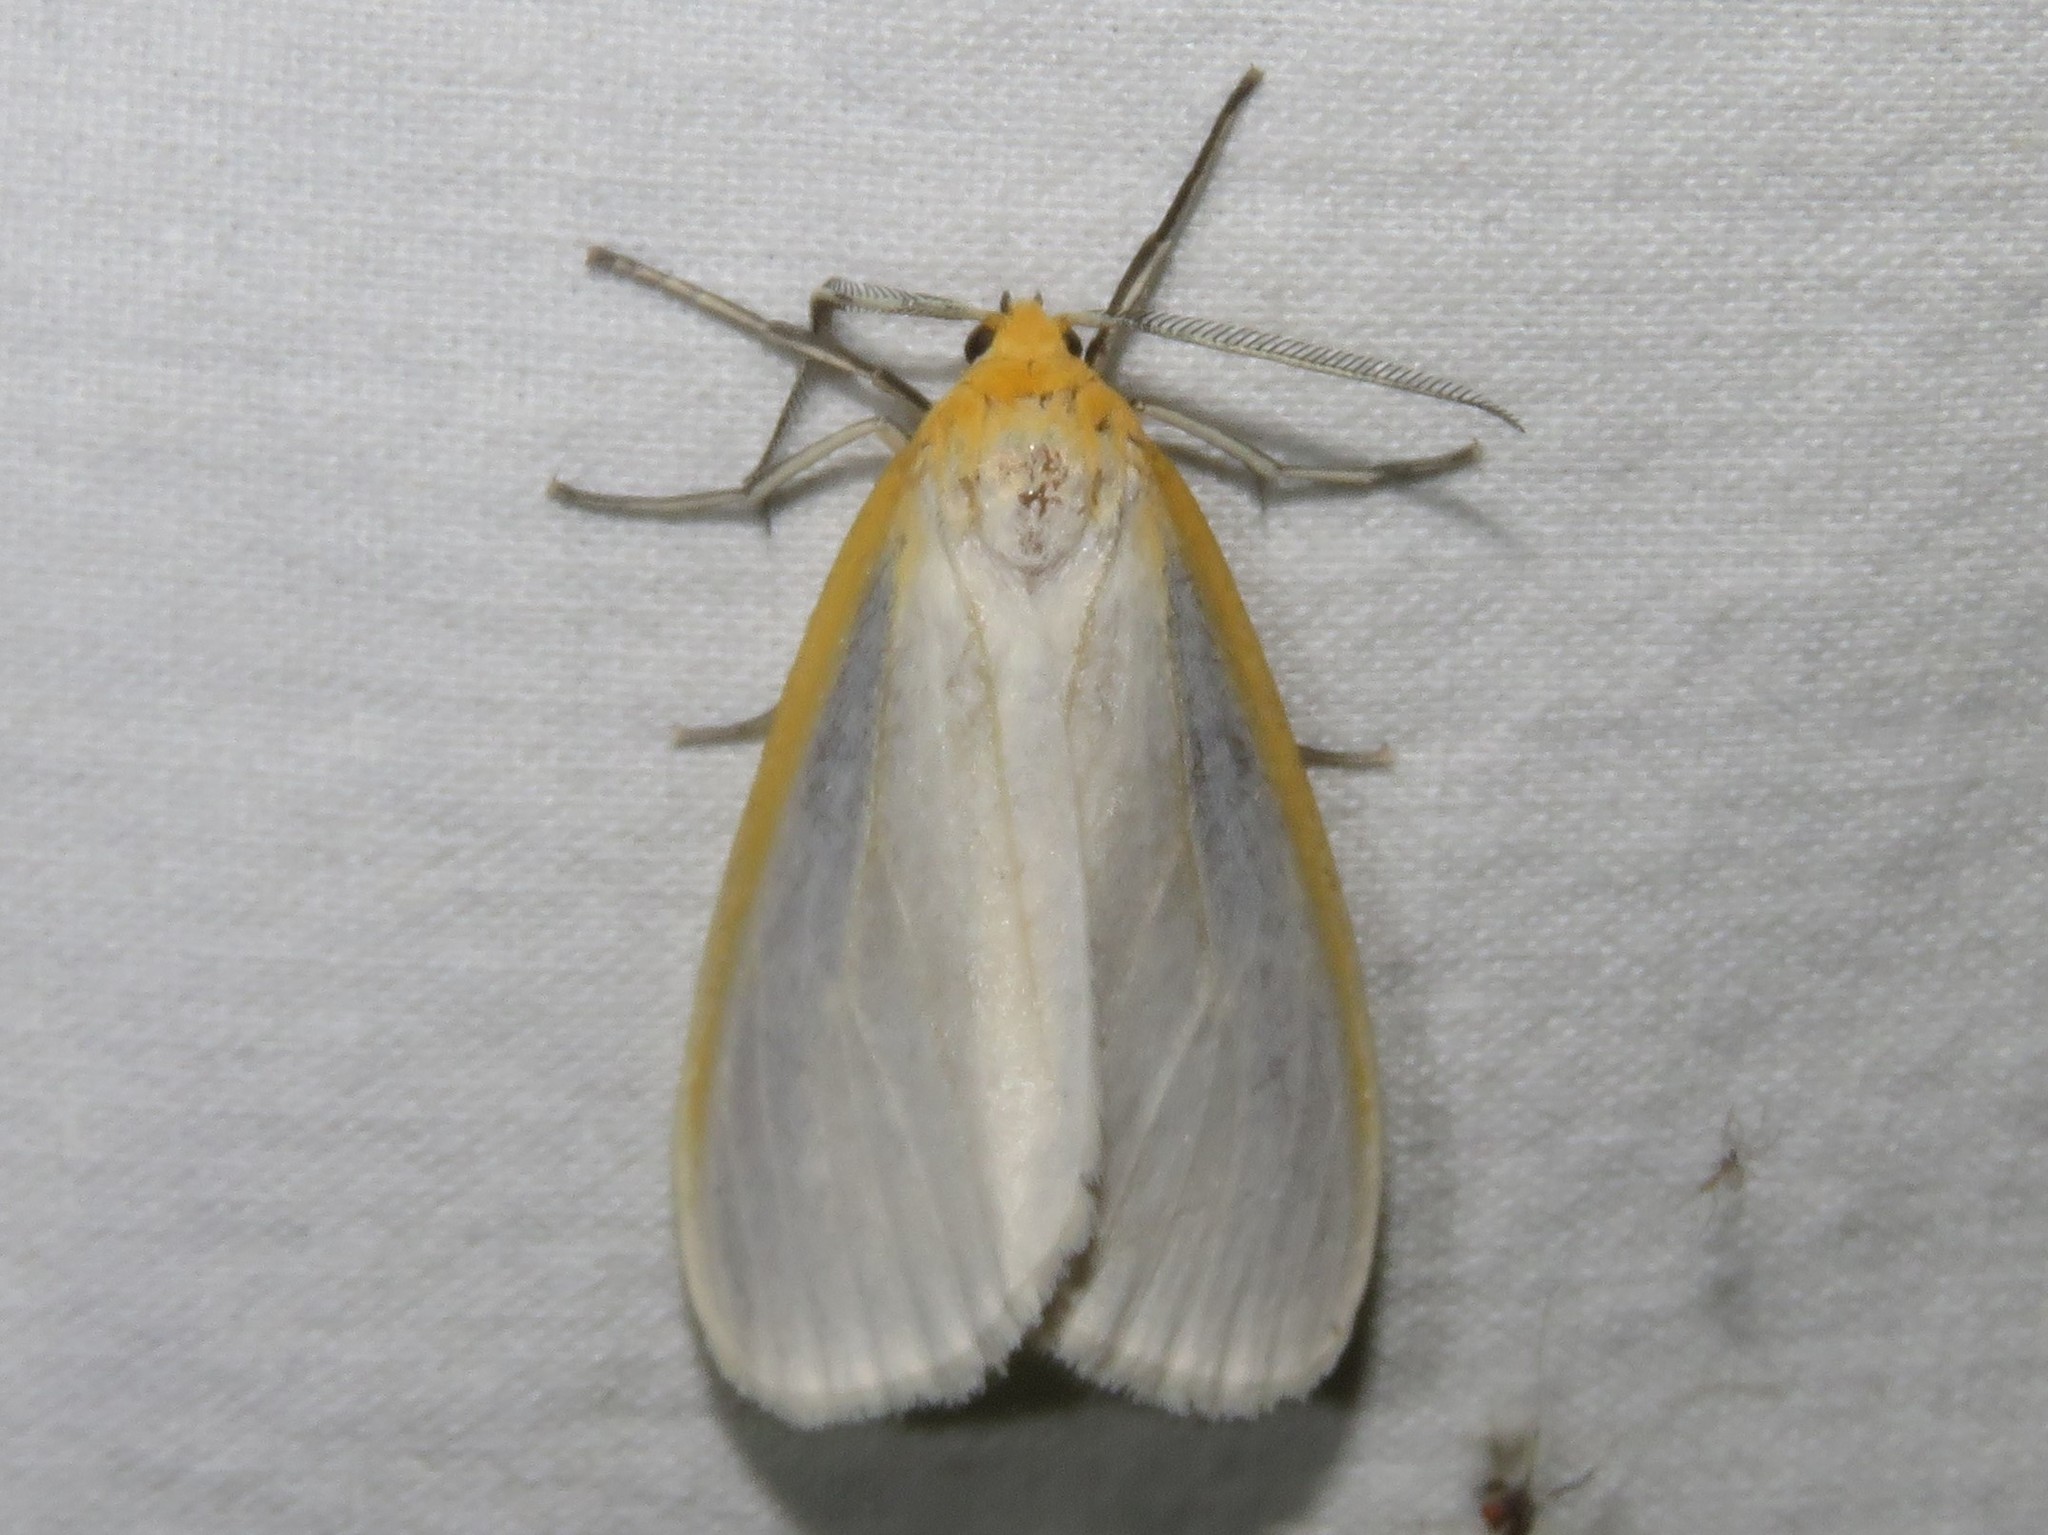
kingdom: Animalia
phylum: Arthropoda
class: Insecta
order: Lepidoptera
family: Erebidae
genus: Cycnia
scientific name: Cycnia tenera
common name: Delicate cycnia moth
